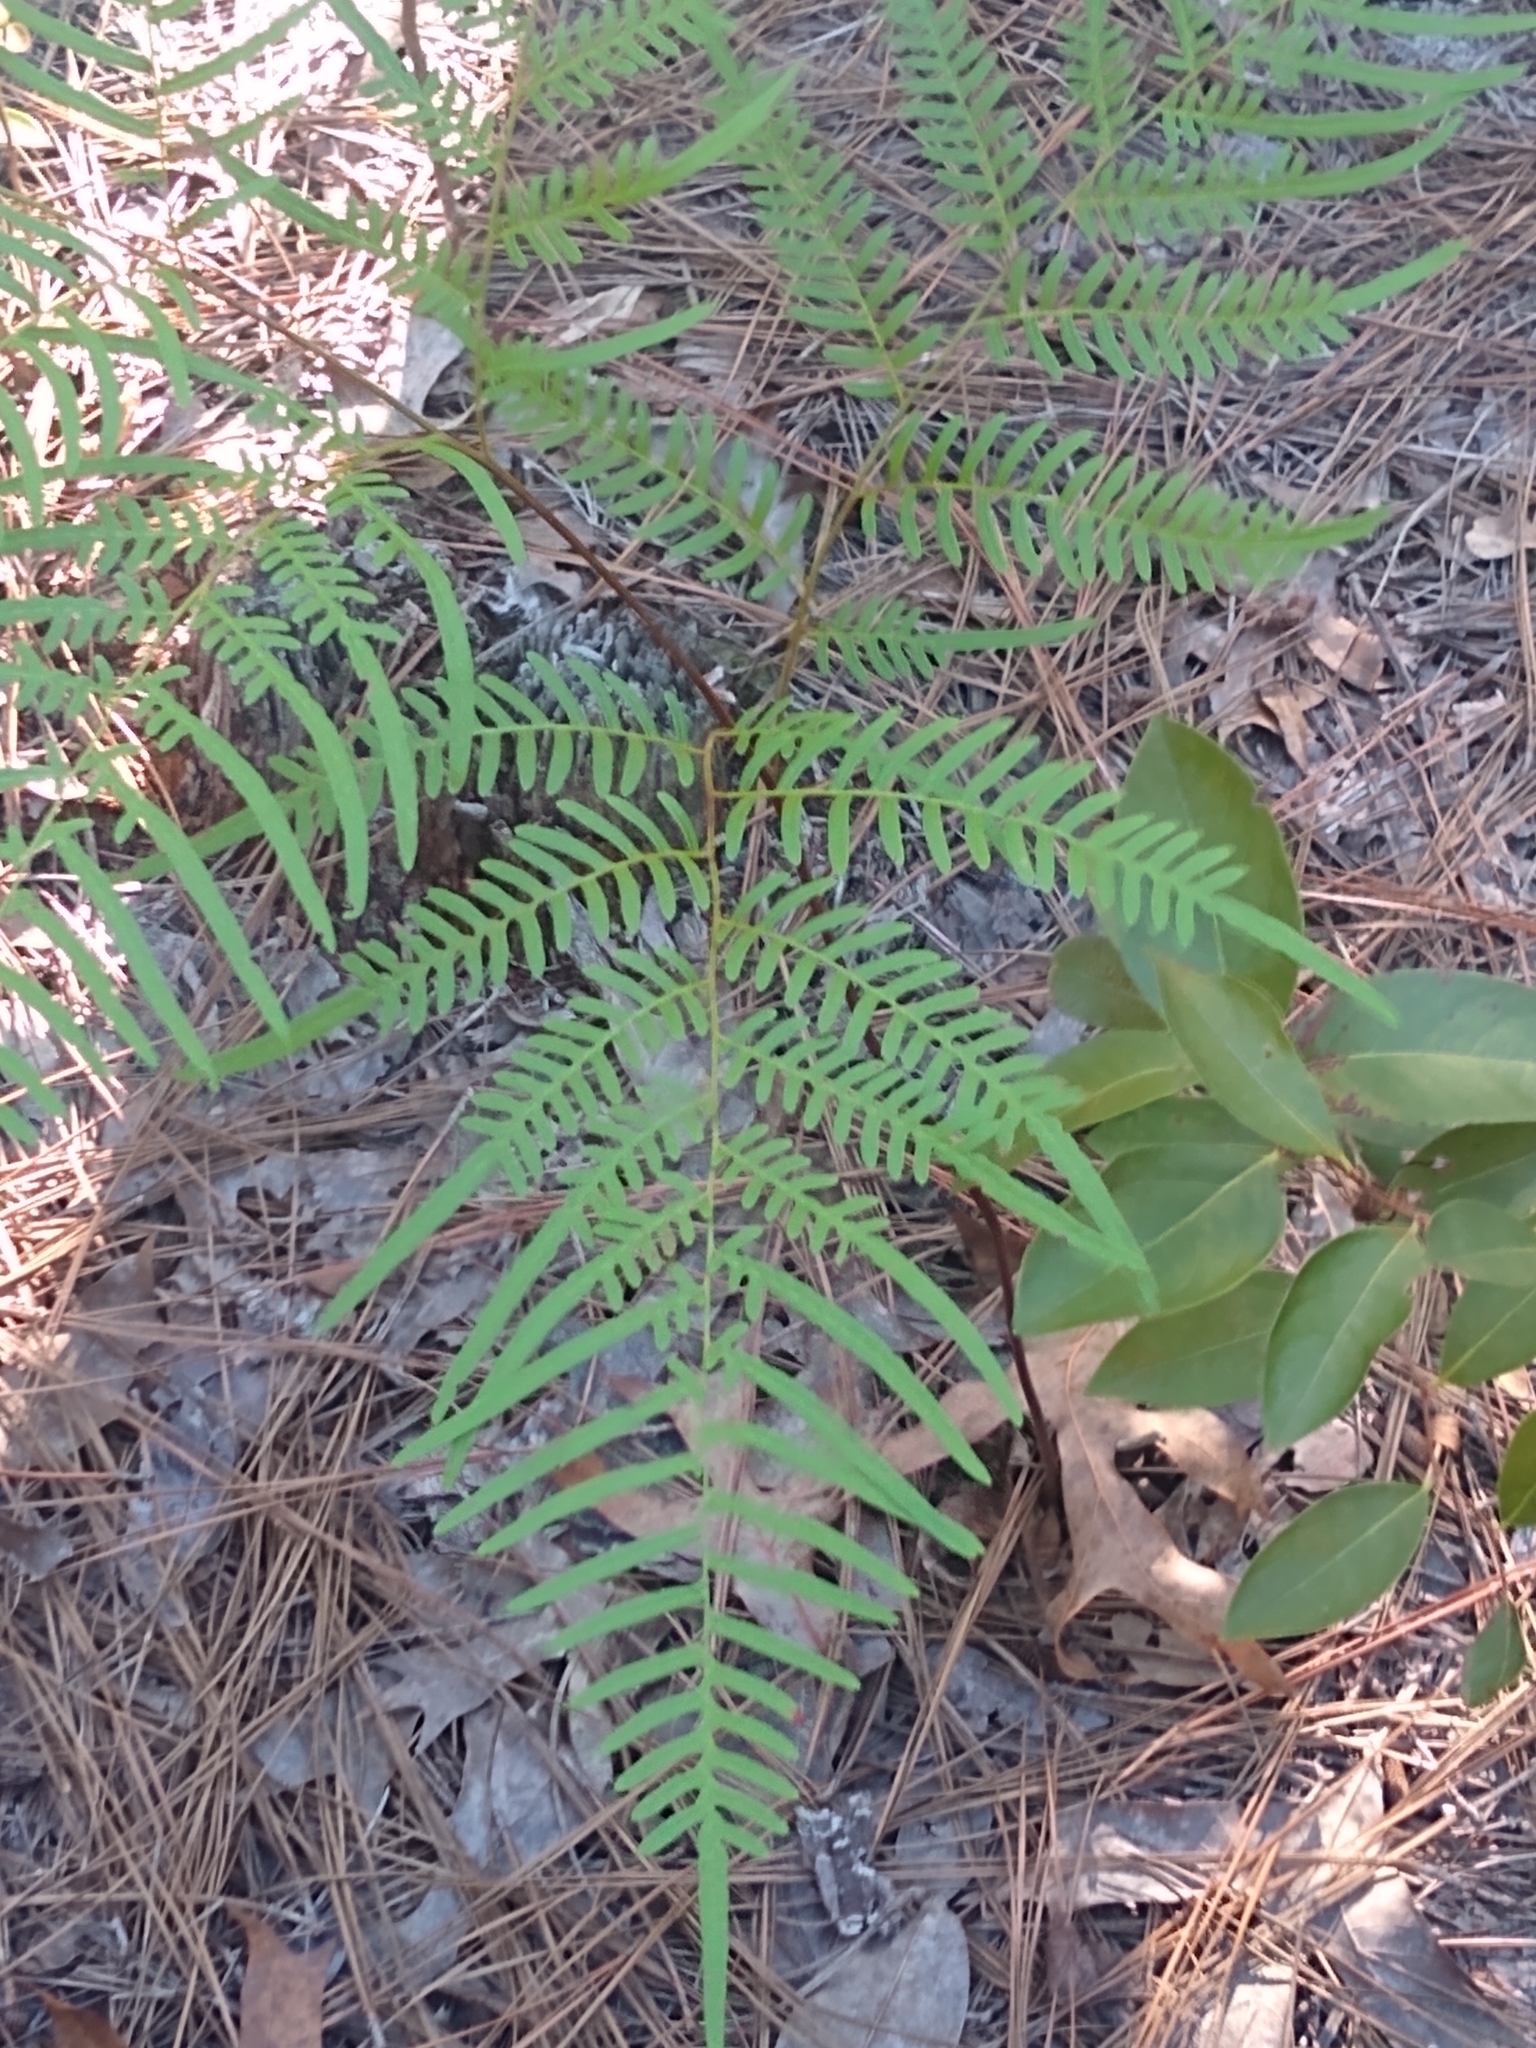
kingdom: Plantae
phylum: Tracheophyta
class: Polypodiopsida
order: Polypodiales
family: Dennstaedtiaceae
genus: Pteridium
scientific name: Pteridium
